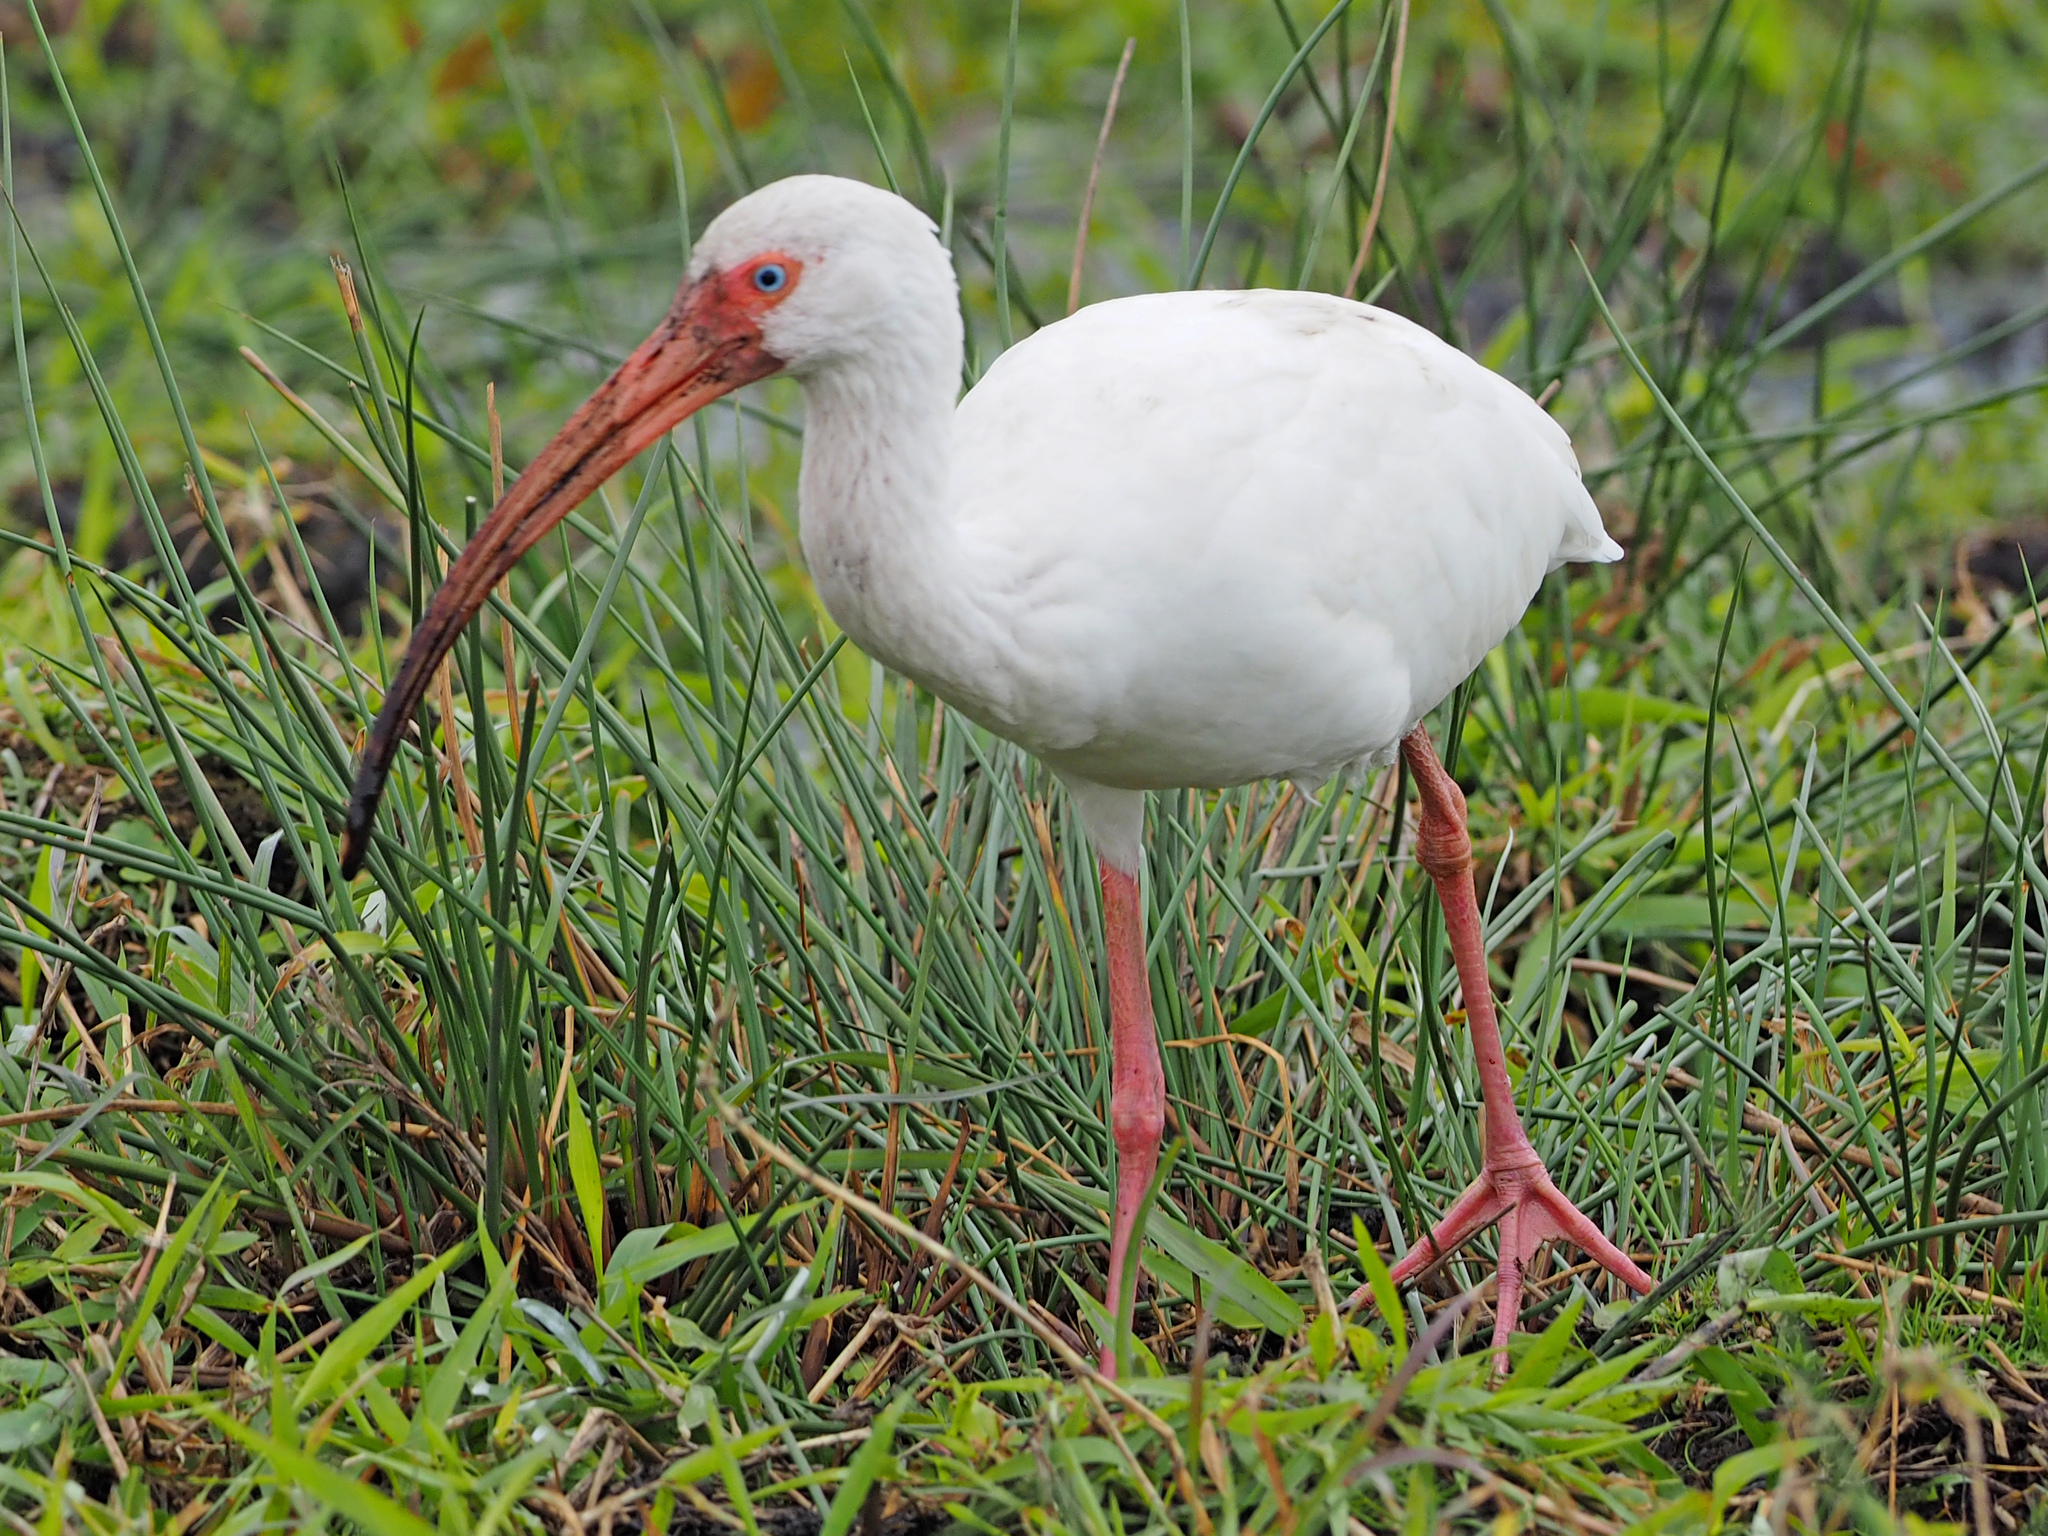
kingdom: Animalia
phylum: Chordata
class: Aves
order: Pelecaniformes
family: Threskiornithidae
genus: Eudocimus
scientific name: Eudocimus albus
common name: White ibis
